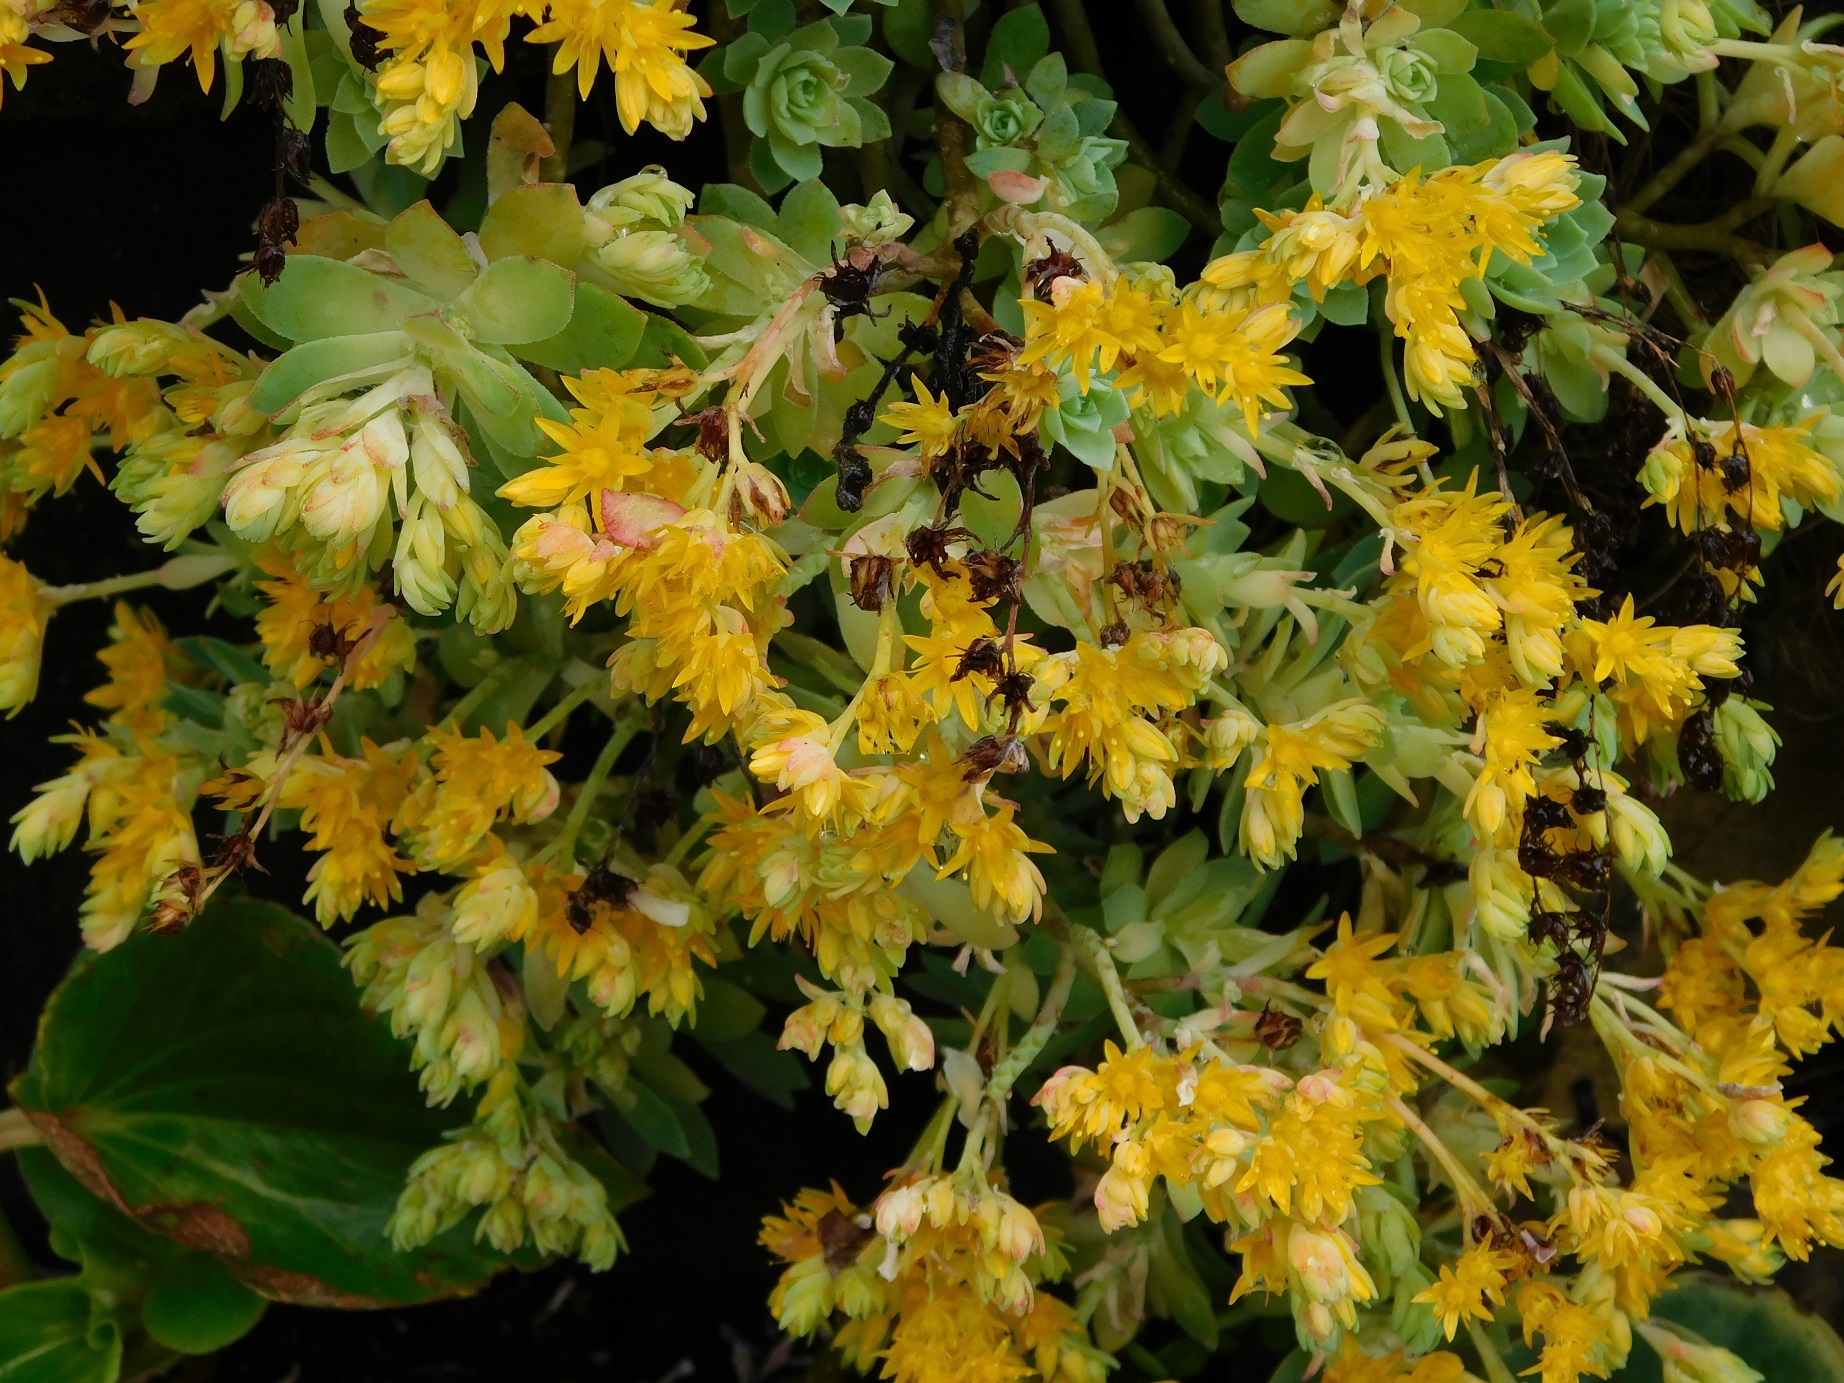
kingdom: Plantae
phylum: Tracheophyta
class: Magnoliopsida
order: Saxifragales
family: Crassulaceae
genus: Sedum
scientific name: Sedum palmeri
